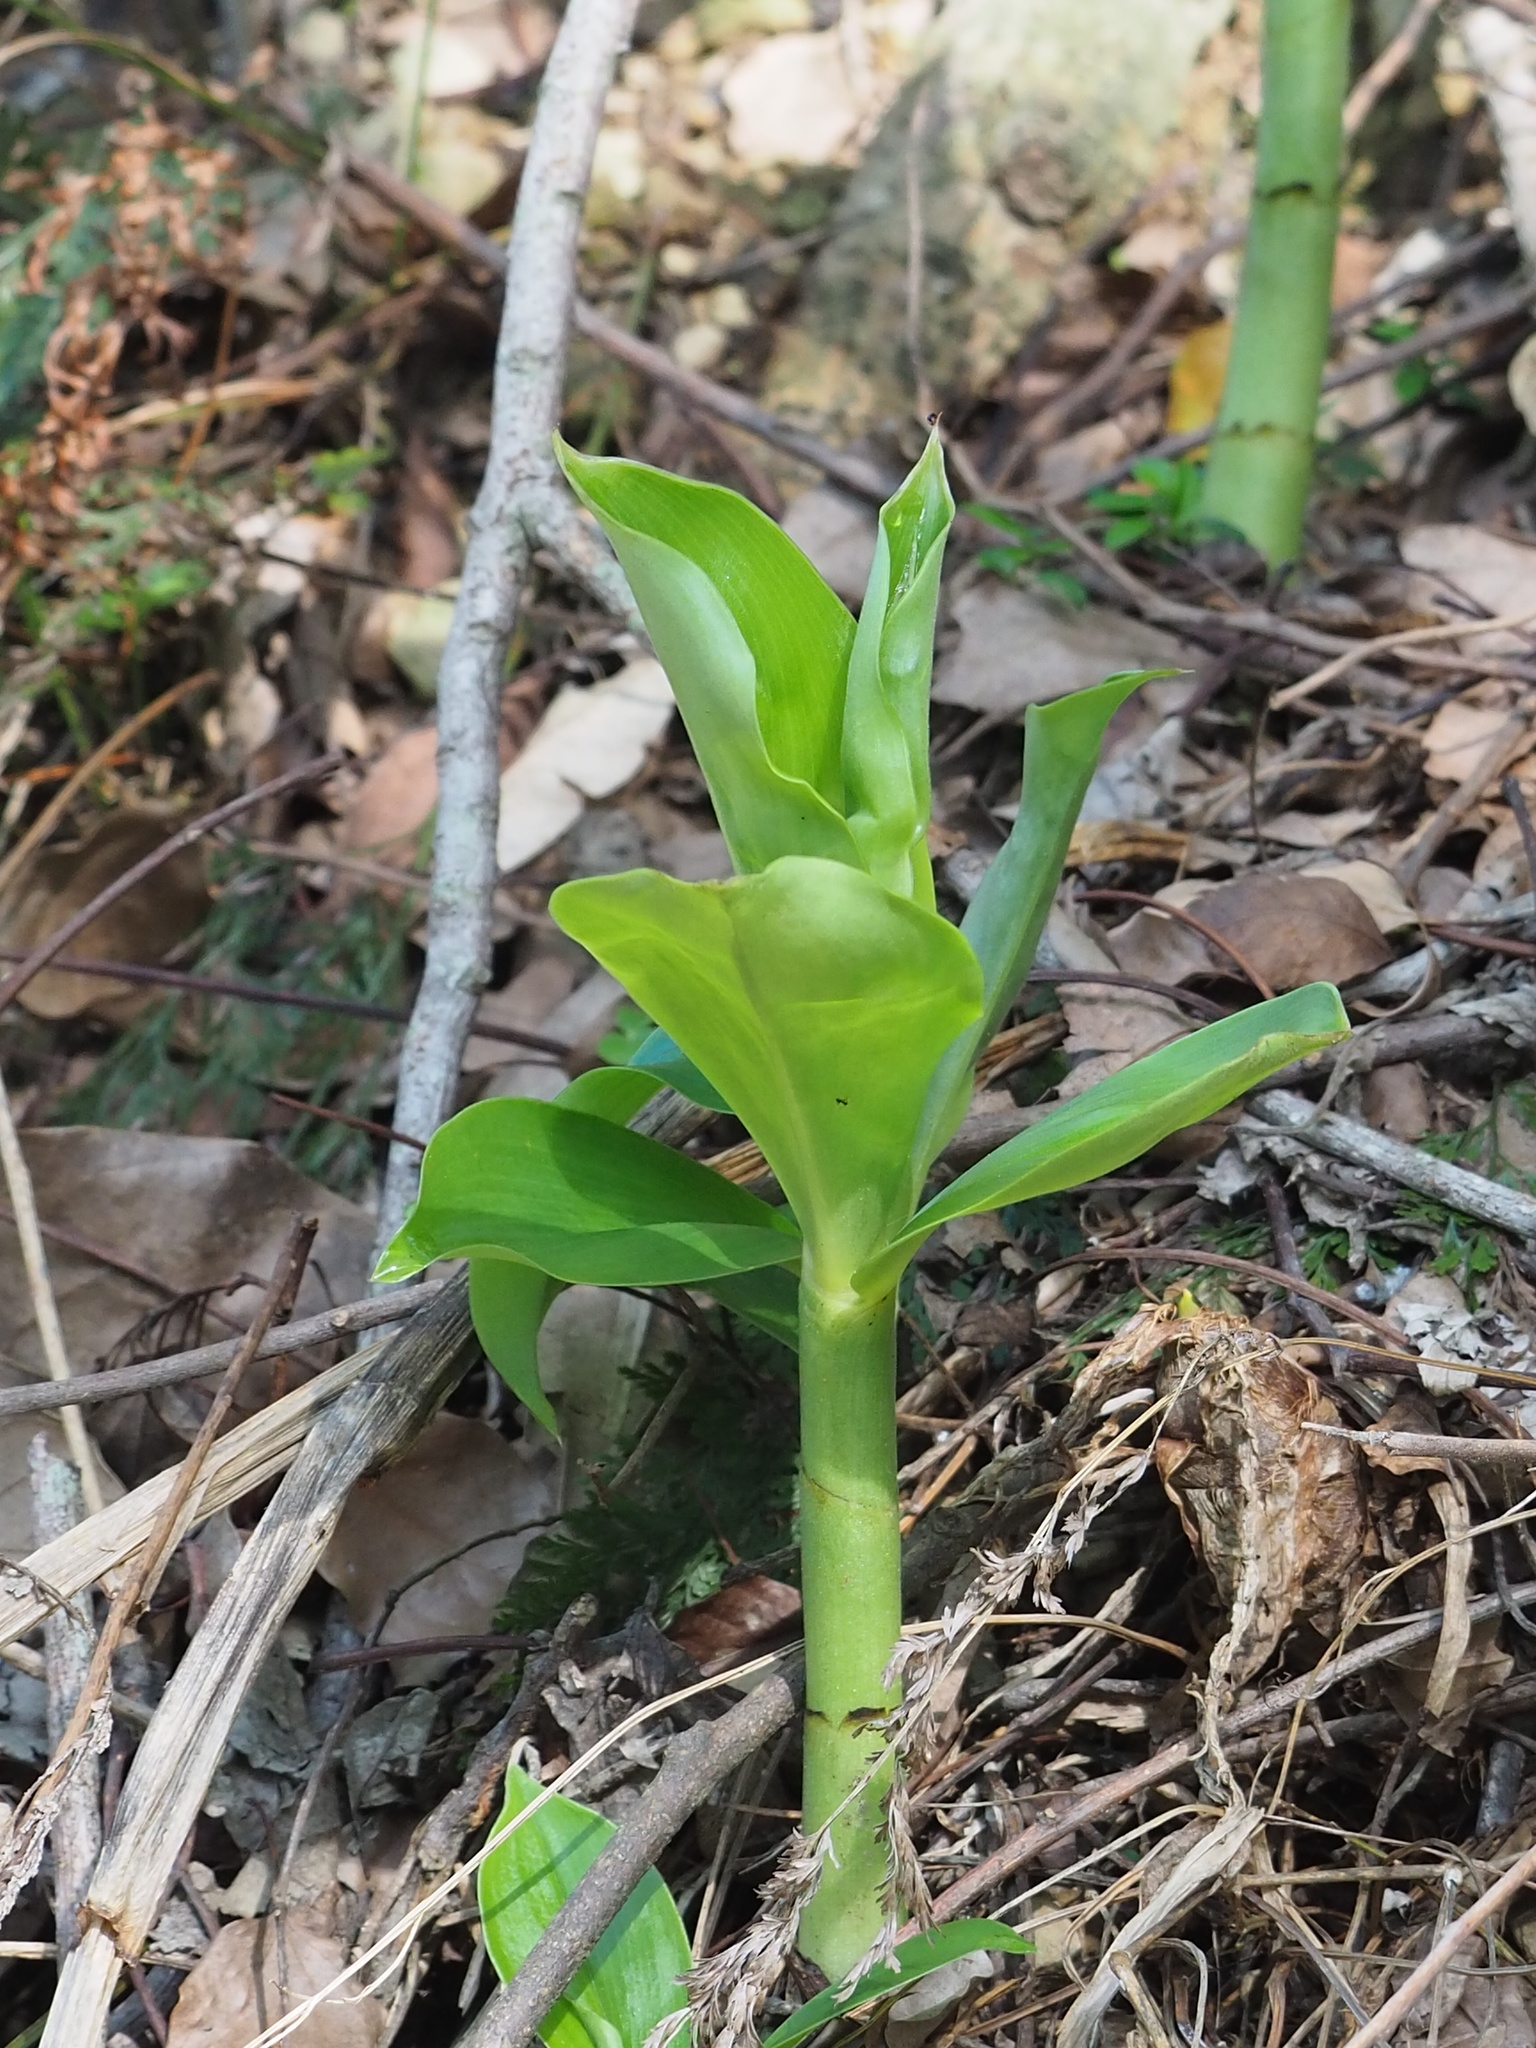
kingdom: Plantae
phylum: Tracheophyta
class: Liliopsida
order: Zingiberales
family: Costaceae
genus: Hellenia
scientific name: Hellenia speciosa
